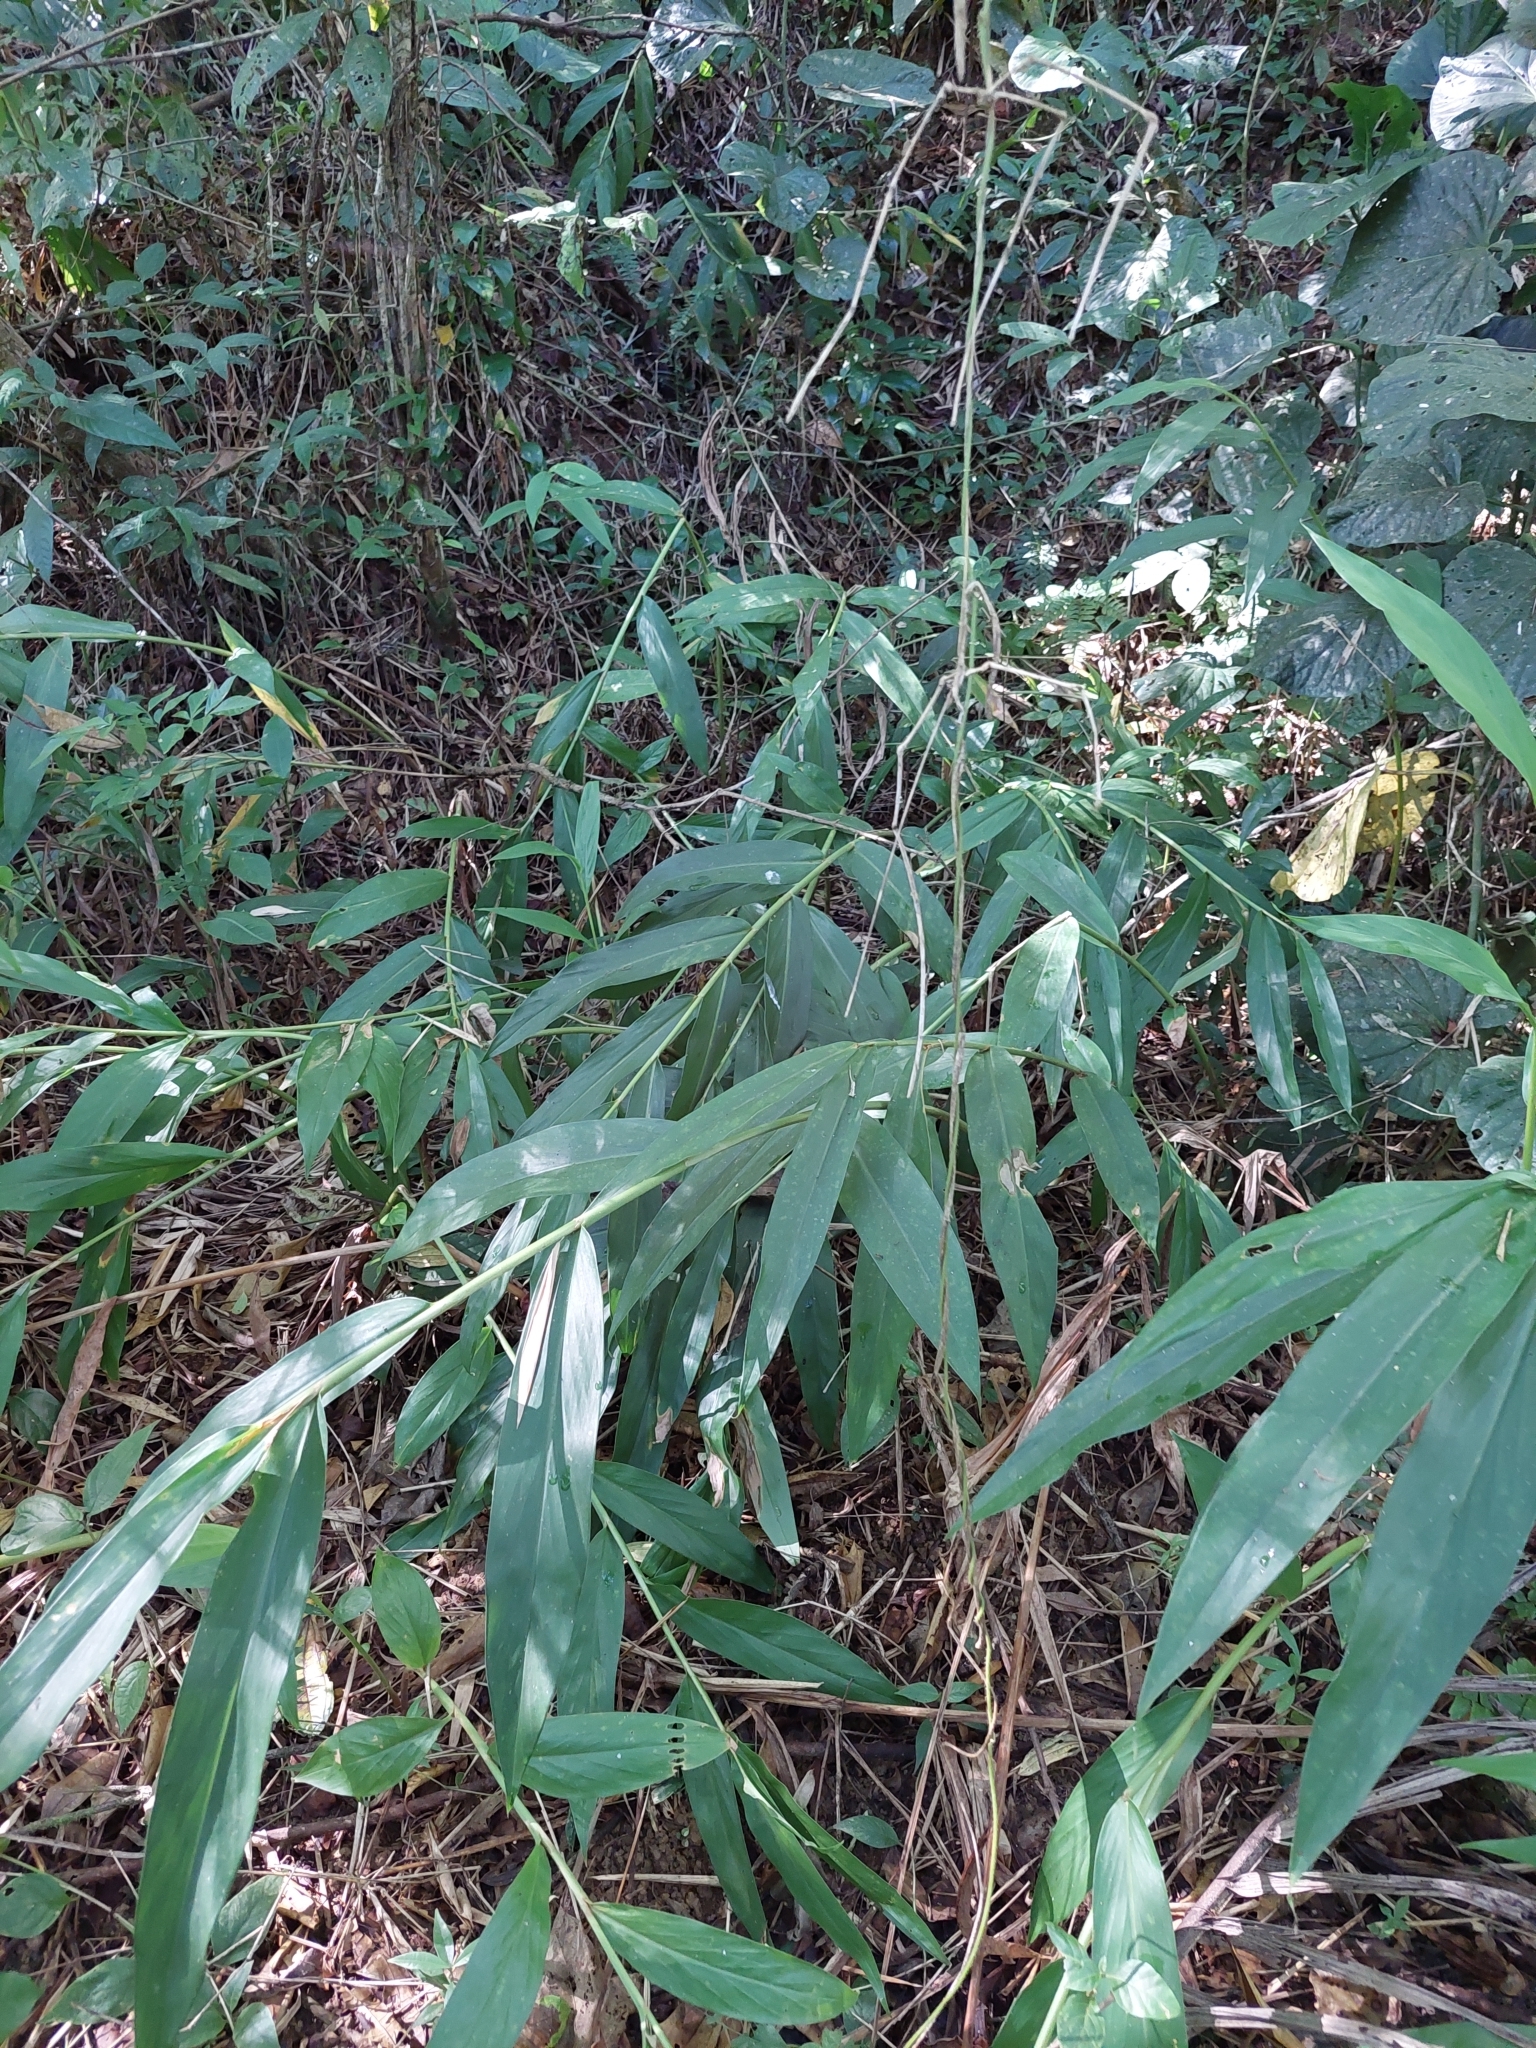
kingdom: Plantae
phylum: Tracheophyta
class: Liliopsida
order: Zingiberales
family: Zingiberaceae
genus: Hedychium
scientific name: Hedychium coronarium
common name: White garland-lily
